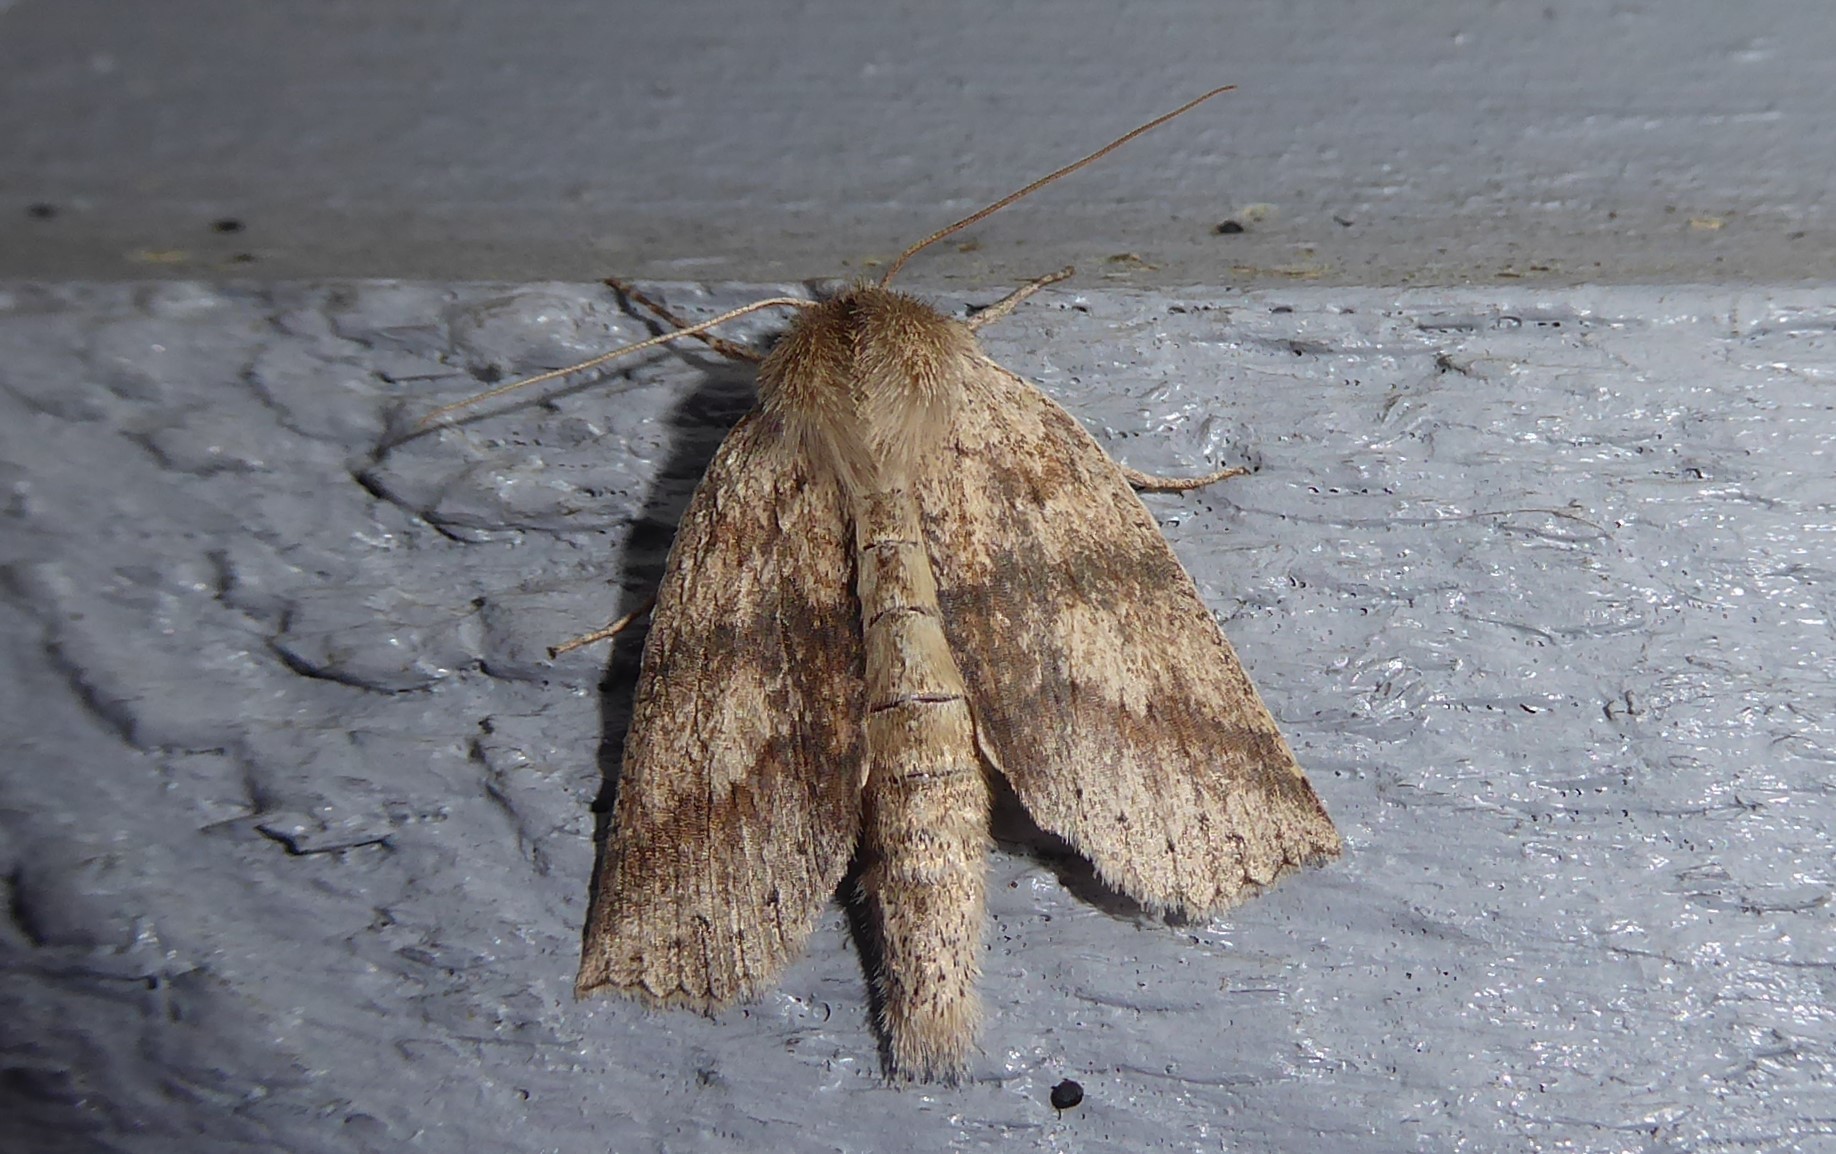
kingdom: Animalia
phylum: Arthropoda
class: Insecta
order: Lepidoptera
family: Geometridae
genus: Declana
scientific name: Declana leptomera
